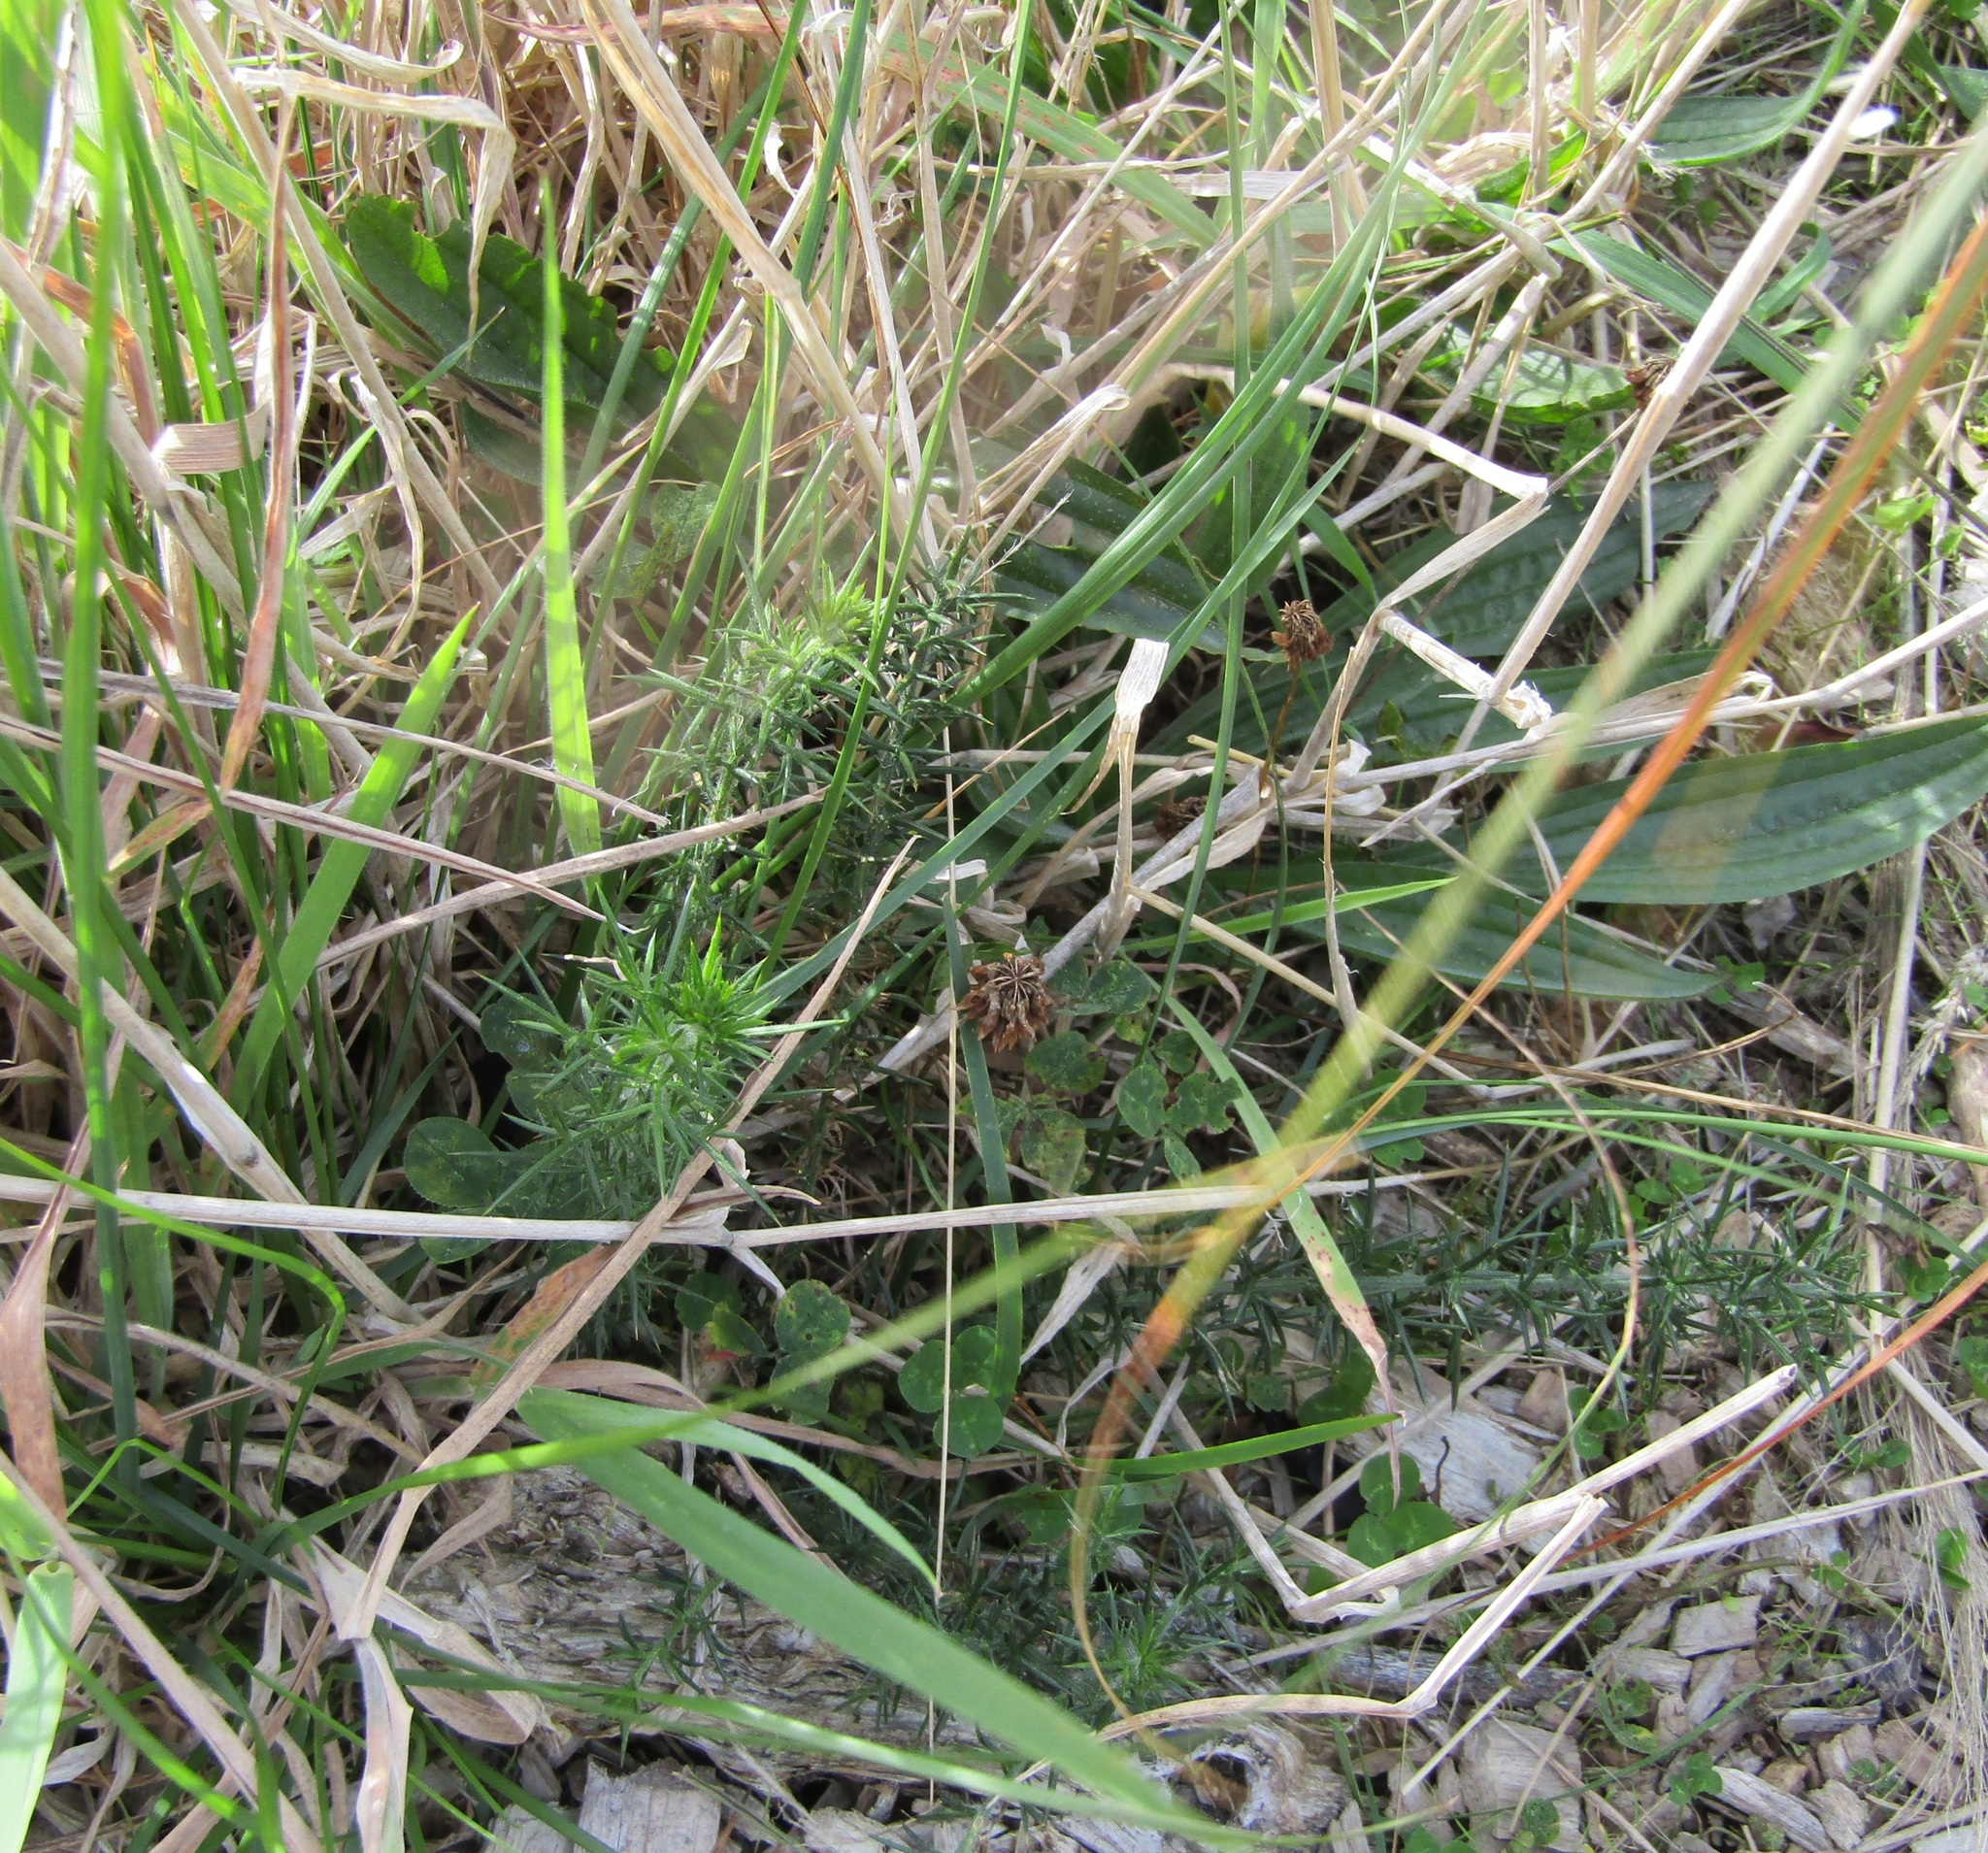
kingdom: Plantae
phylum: Tracheophyta
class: Magnoliopsida
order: Fabales
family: Fabaceae
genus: Ulex
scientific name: Ulex europaeus
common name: Common gorse
